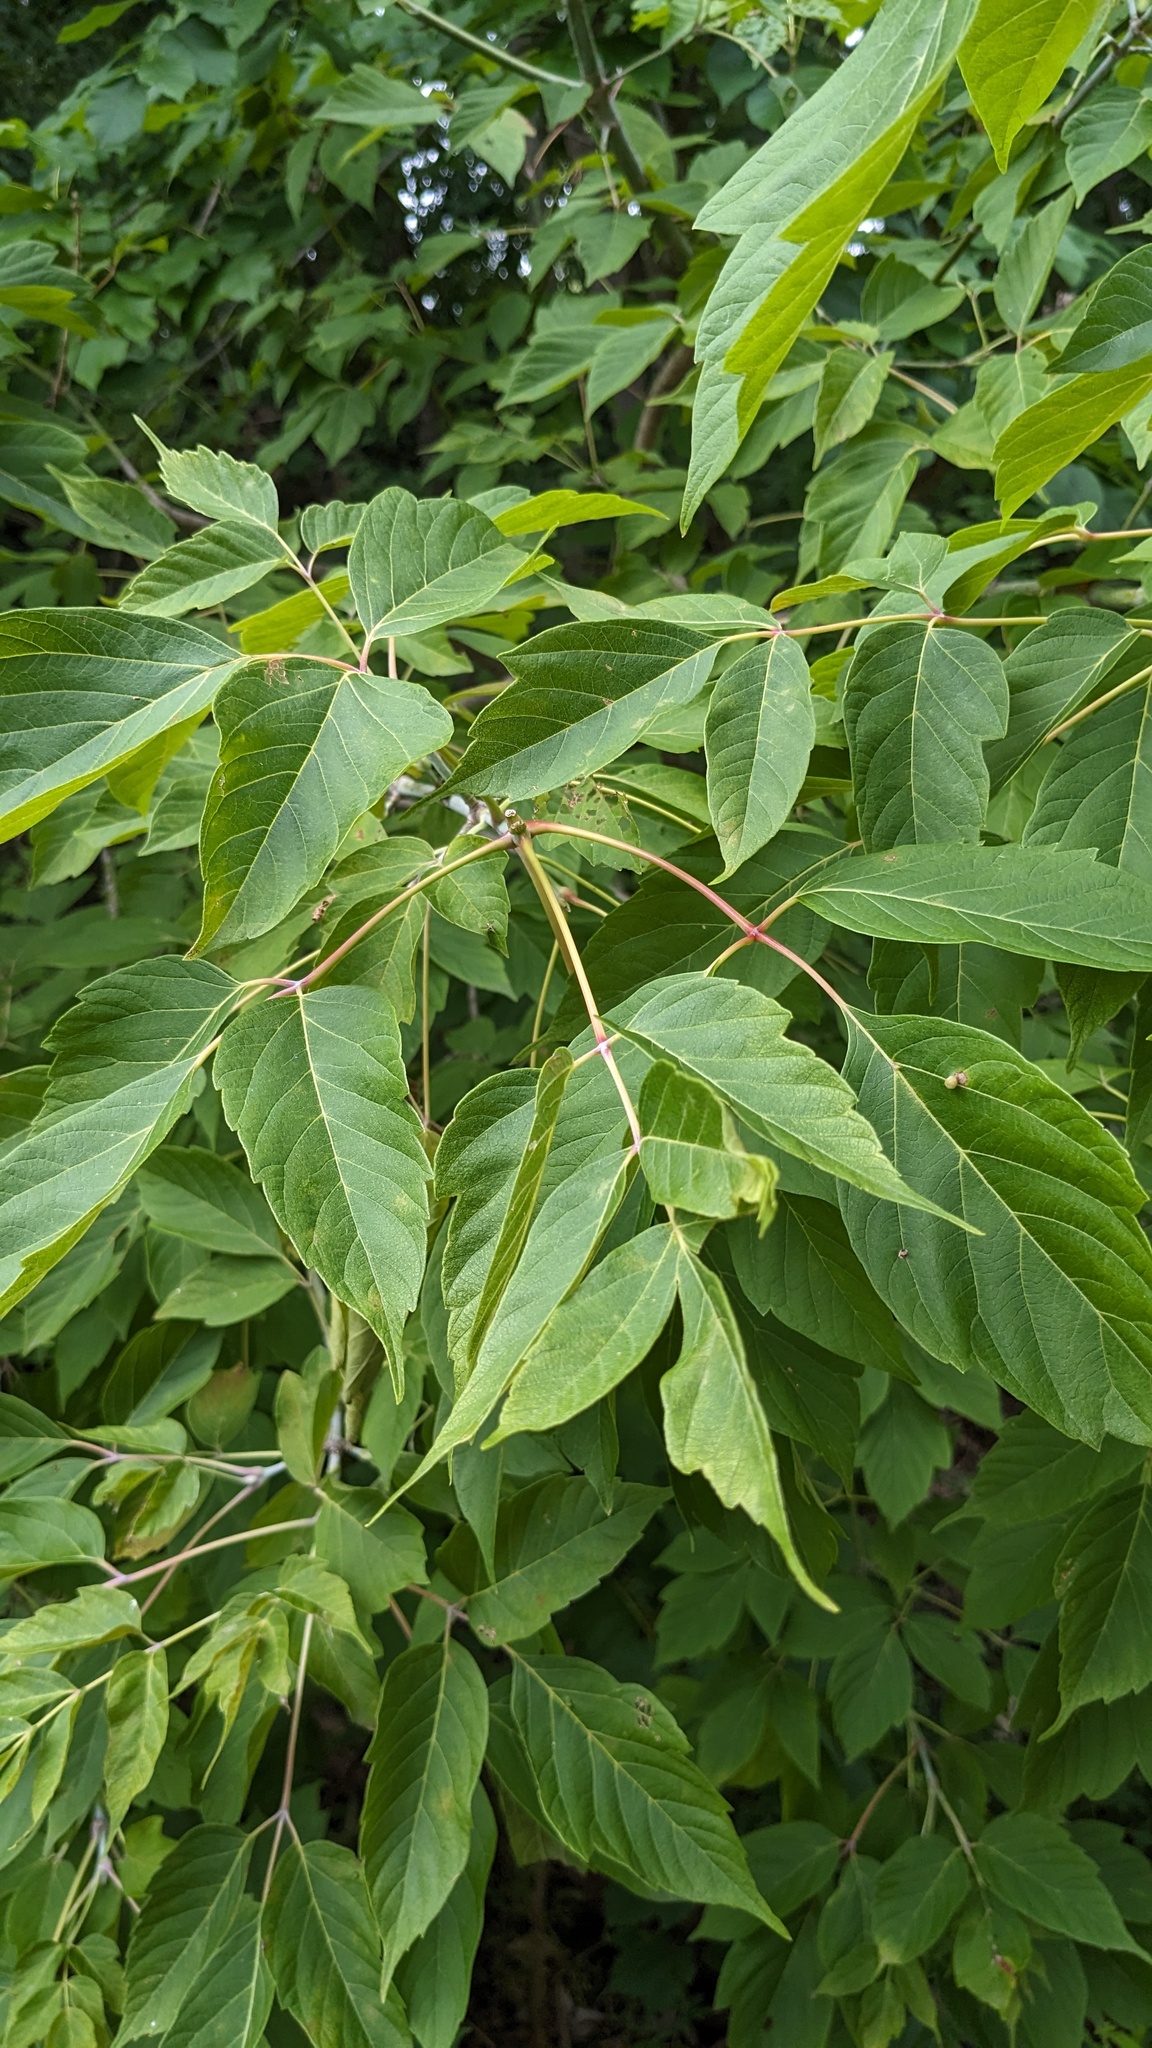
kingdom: Plantae
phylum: Tracheophyta
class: Magnoliopsida
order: Sapindales
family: Sapindaceae
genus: Acer
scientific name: Acer negundo
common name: Ashleaf maple
